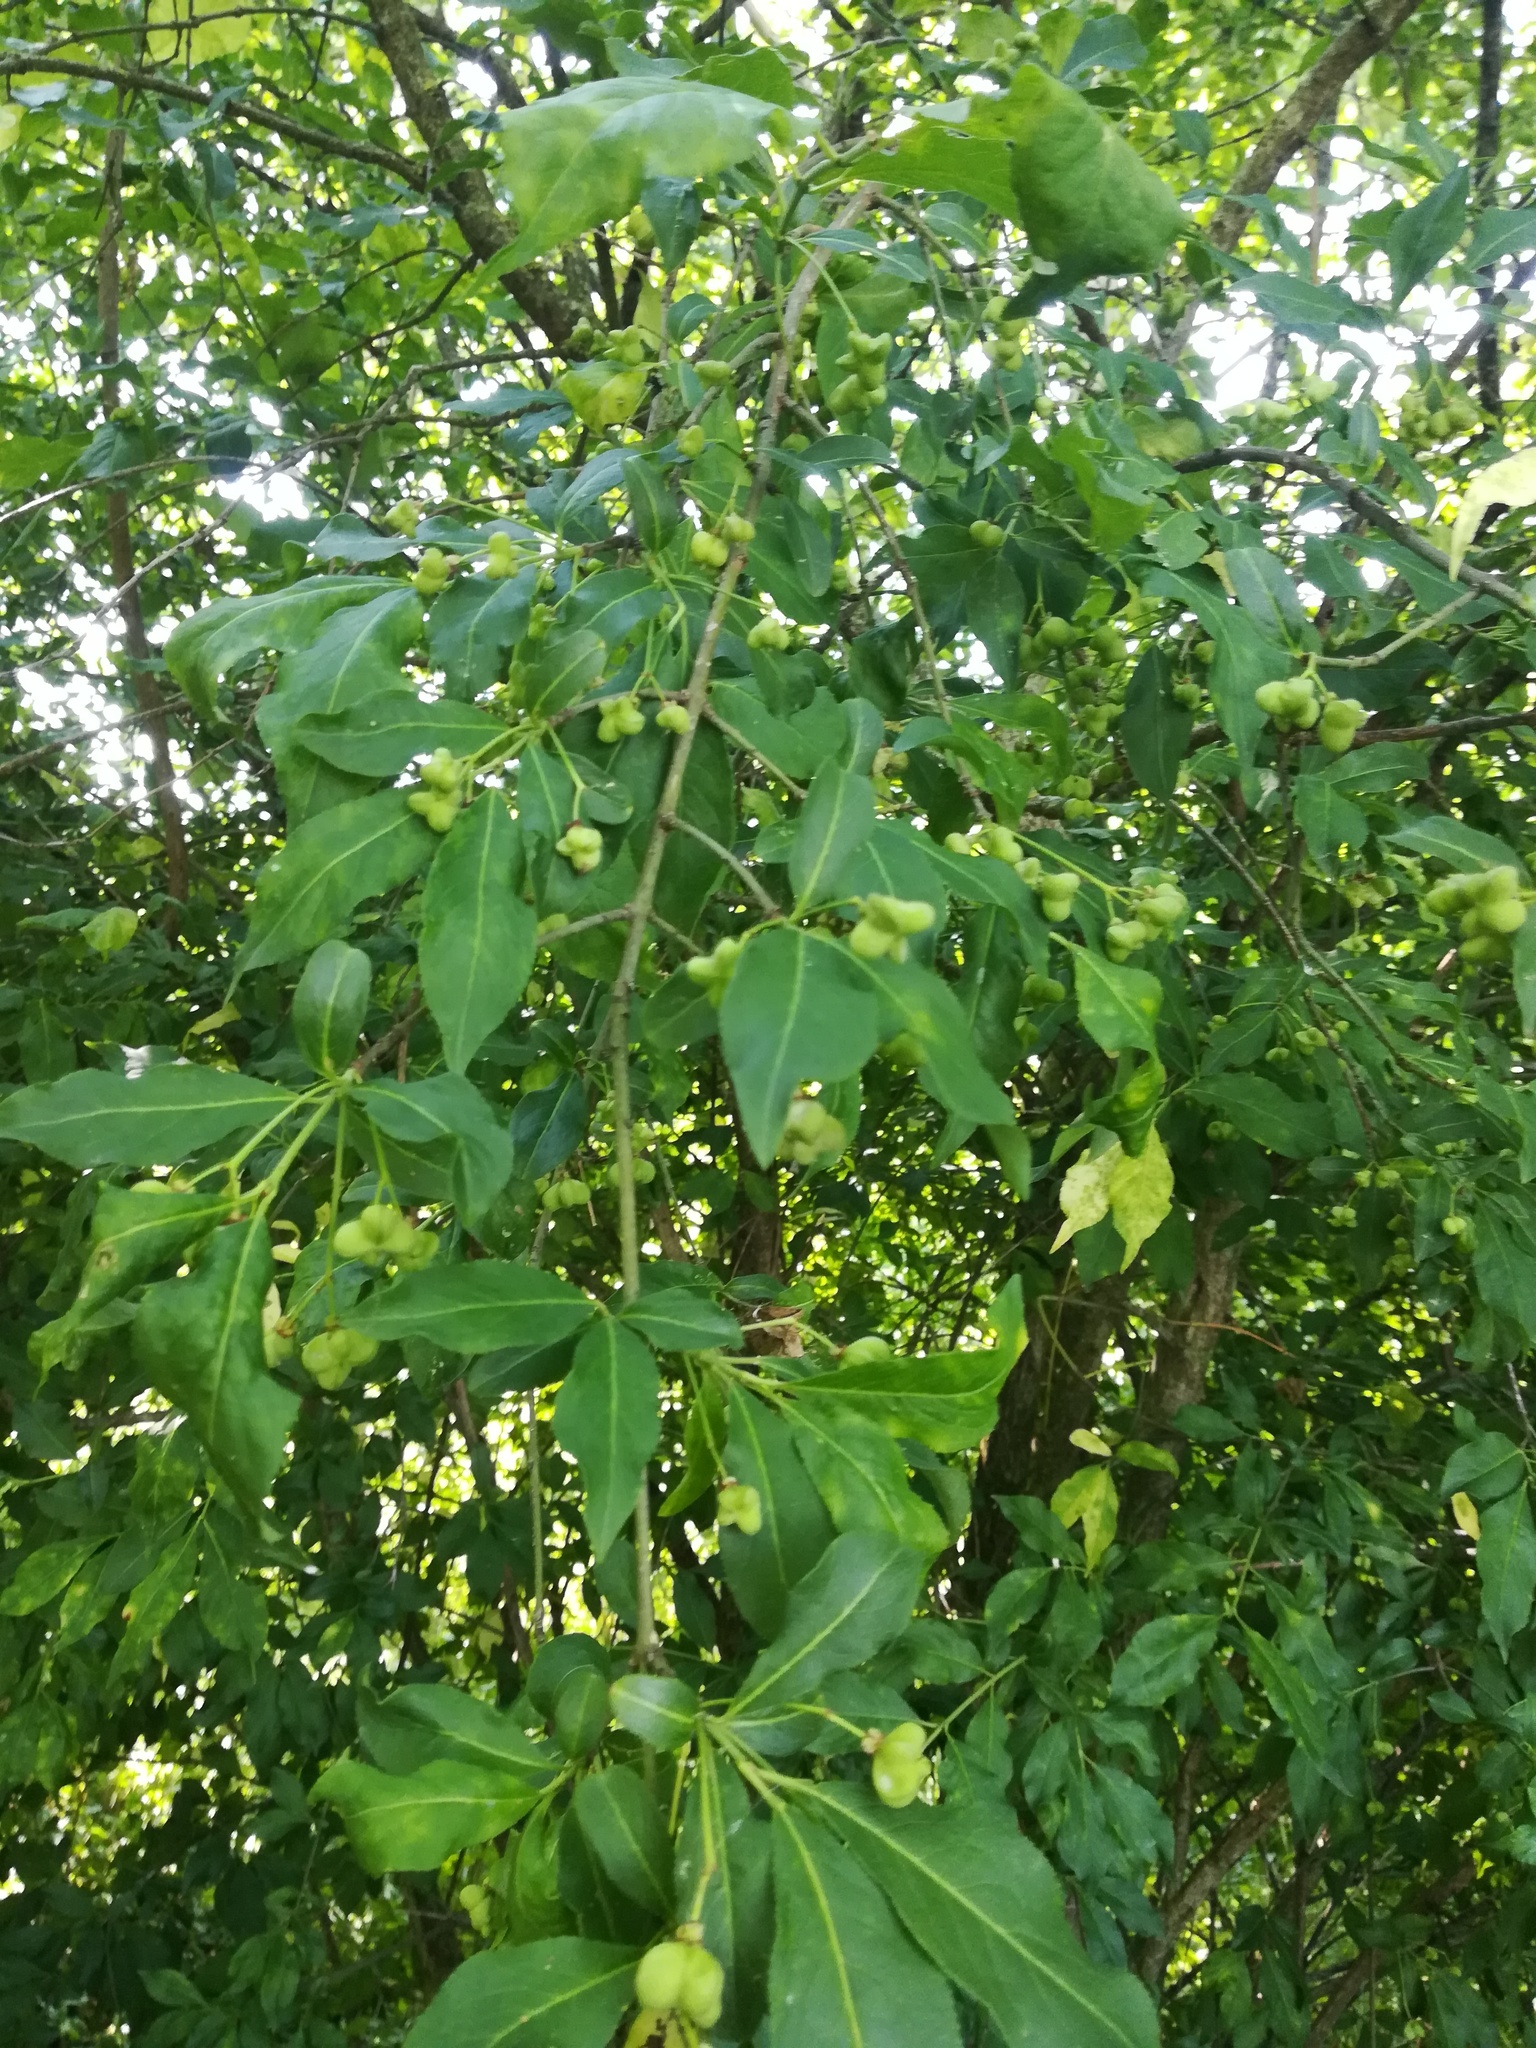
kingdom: Plantae
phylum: Tracheophyta
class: Magnoliopsida
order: Celastrales
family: Celastraceae
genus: Euonymus
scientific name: Euonymus europaeus
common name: Spindle
